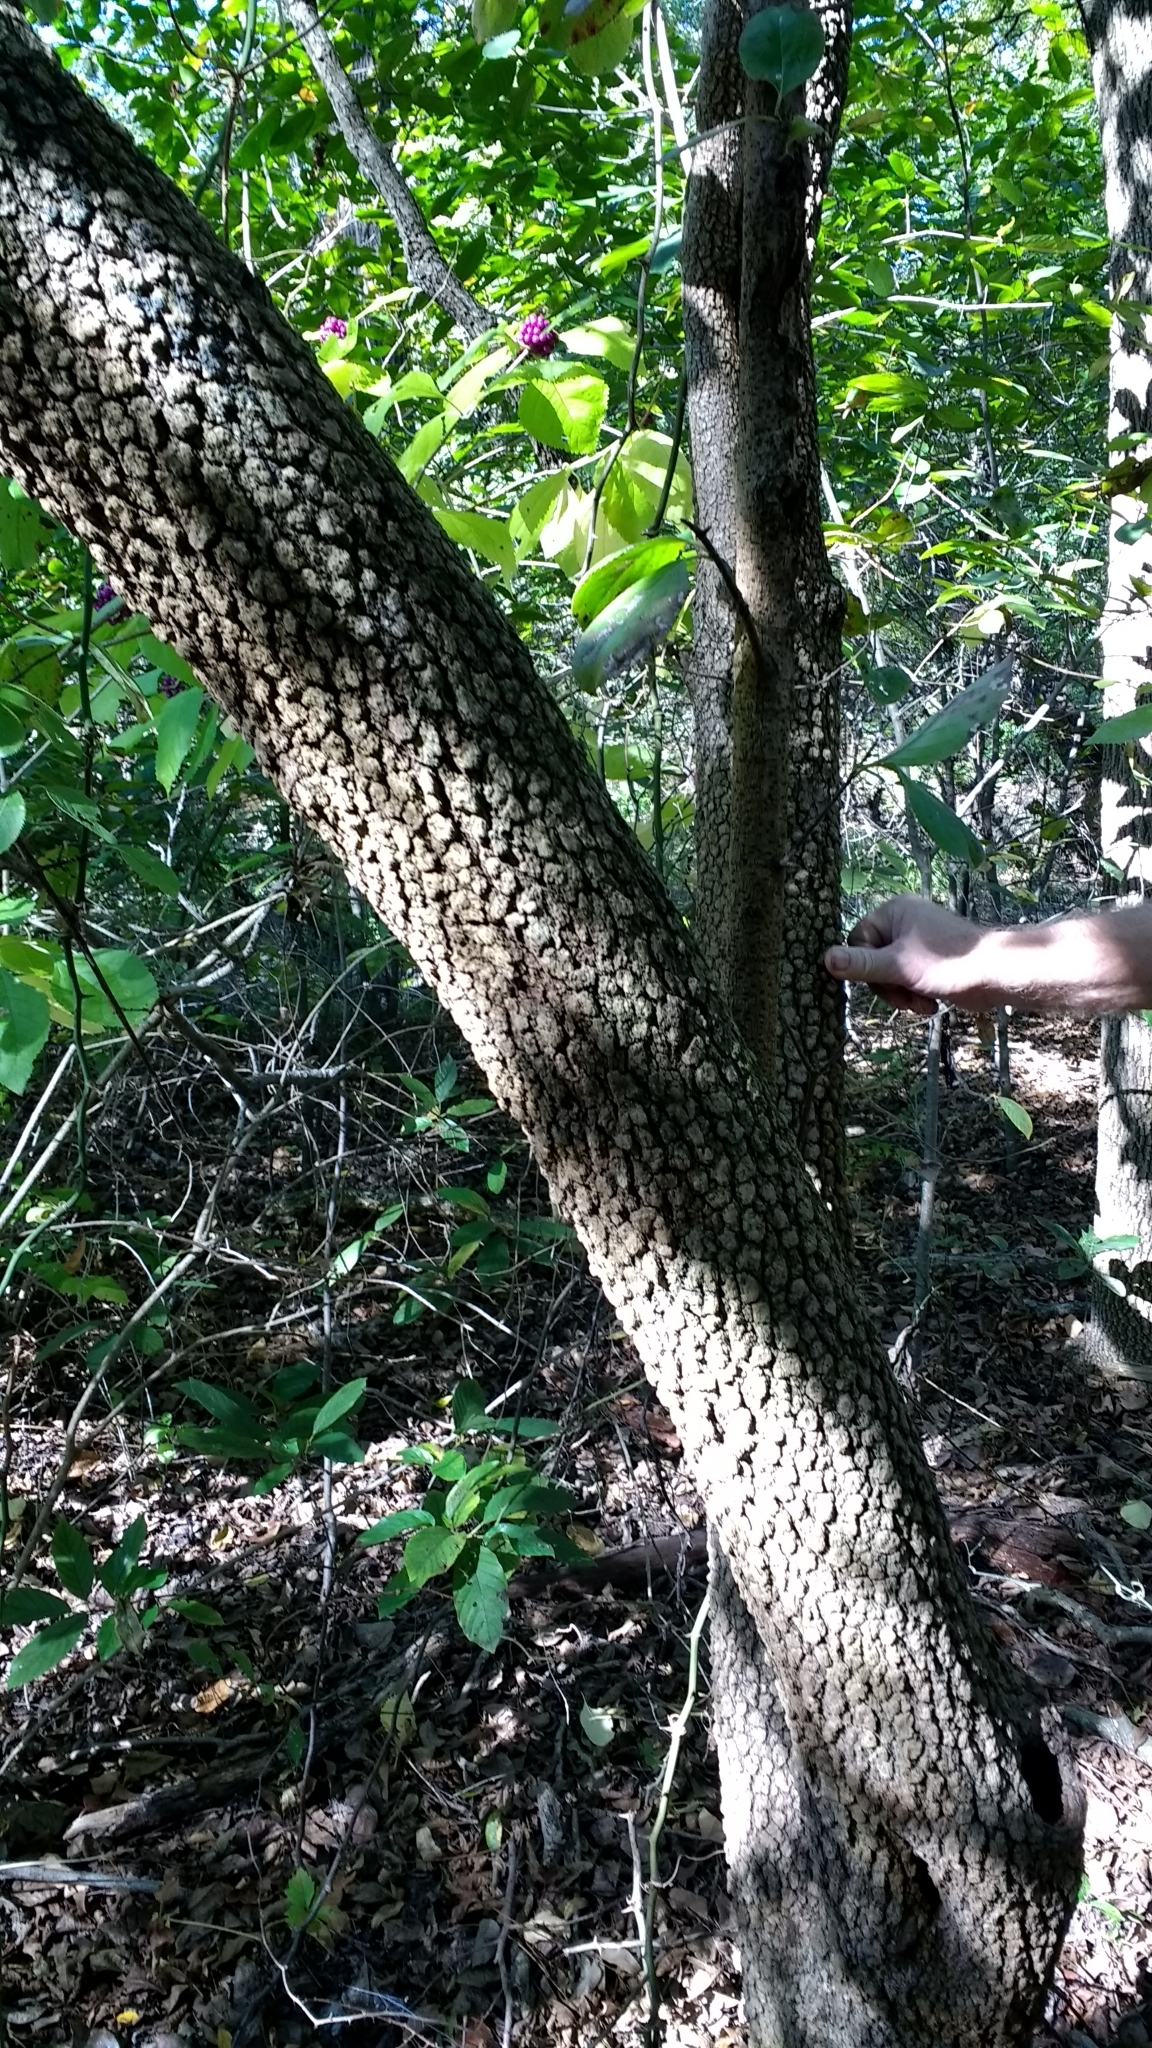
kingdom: Plantae
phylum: Tracheophyta
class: Magnoliopsida
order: Ericales
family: Ebenaceae
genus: Diospyros
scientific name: Diospyros virginiana
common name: Persimmon
